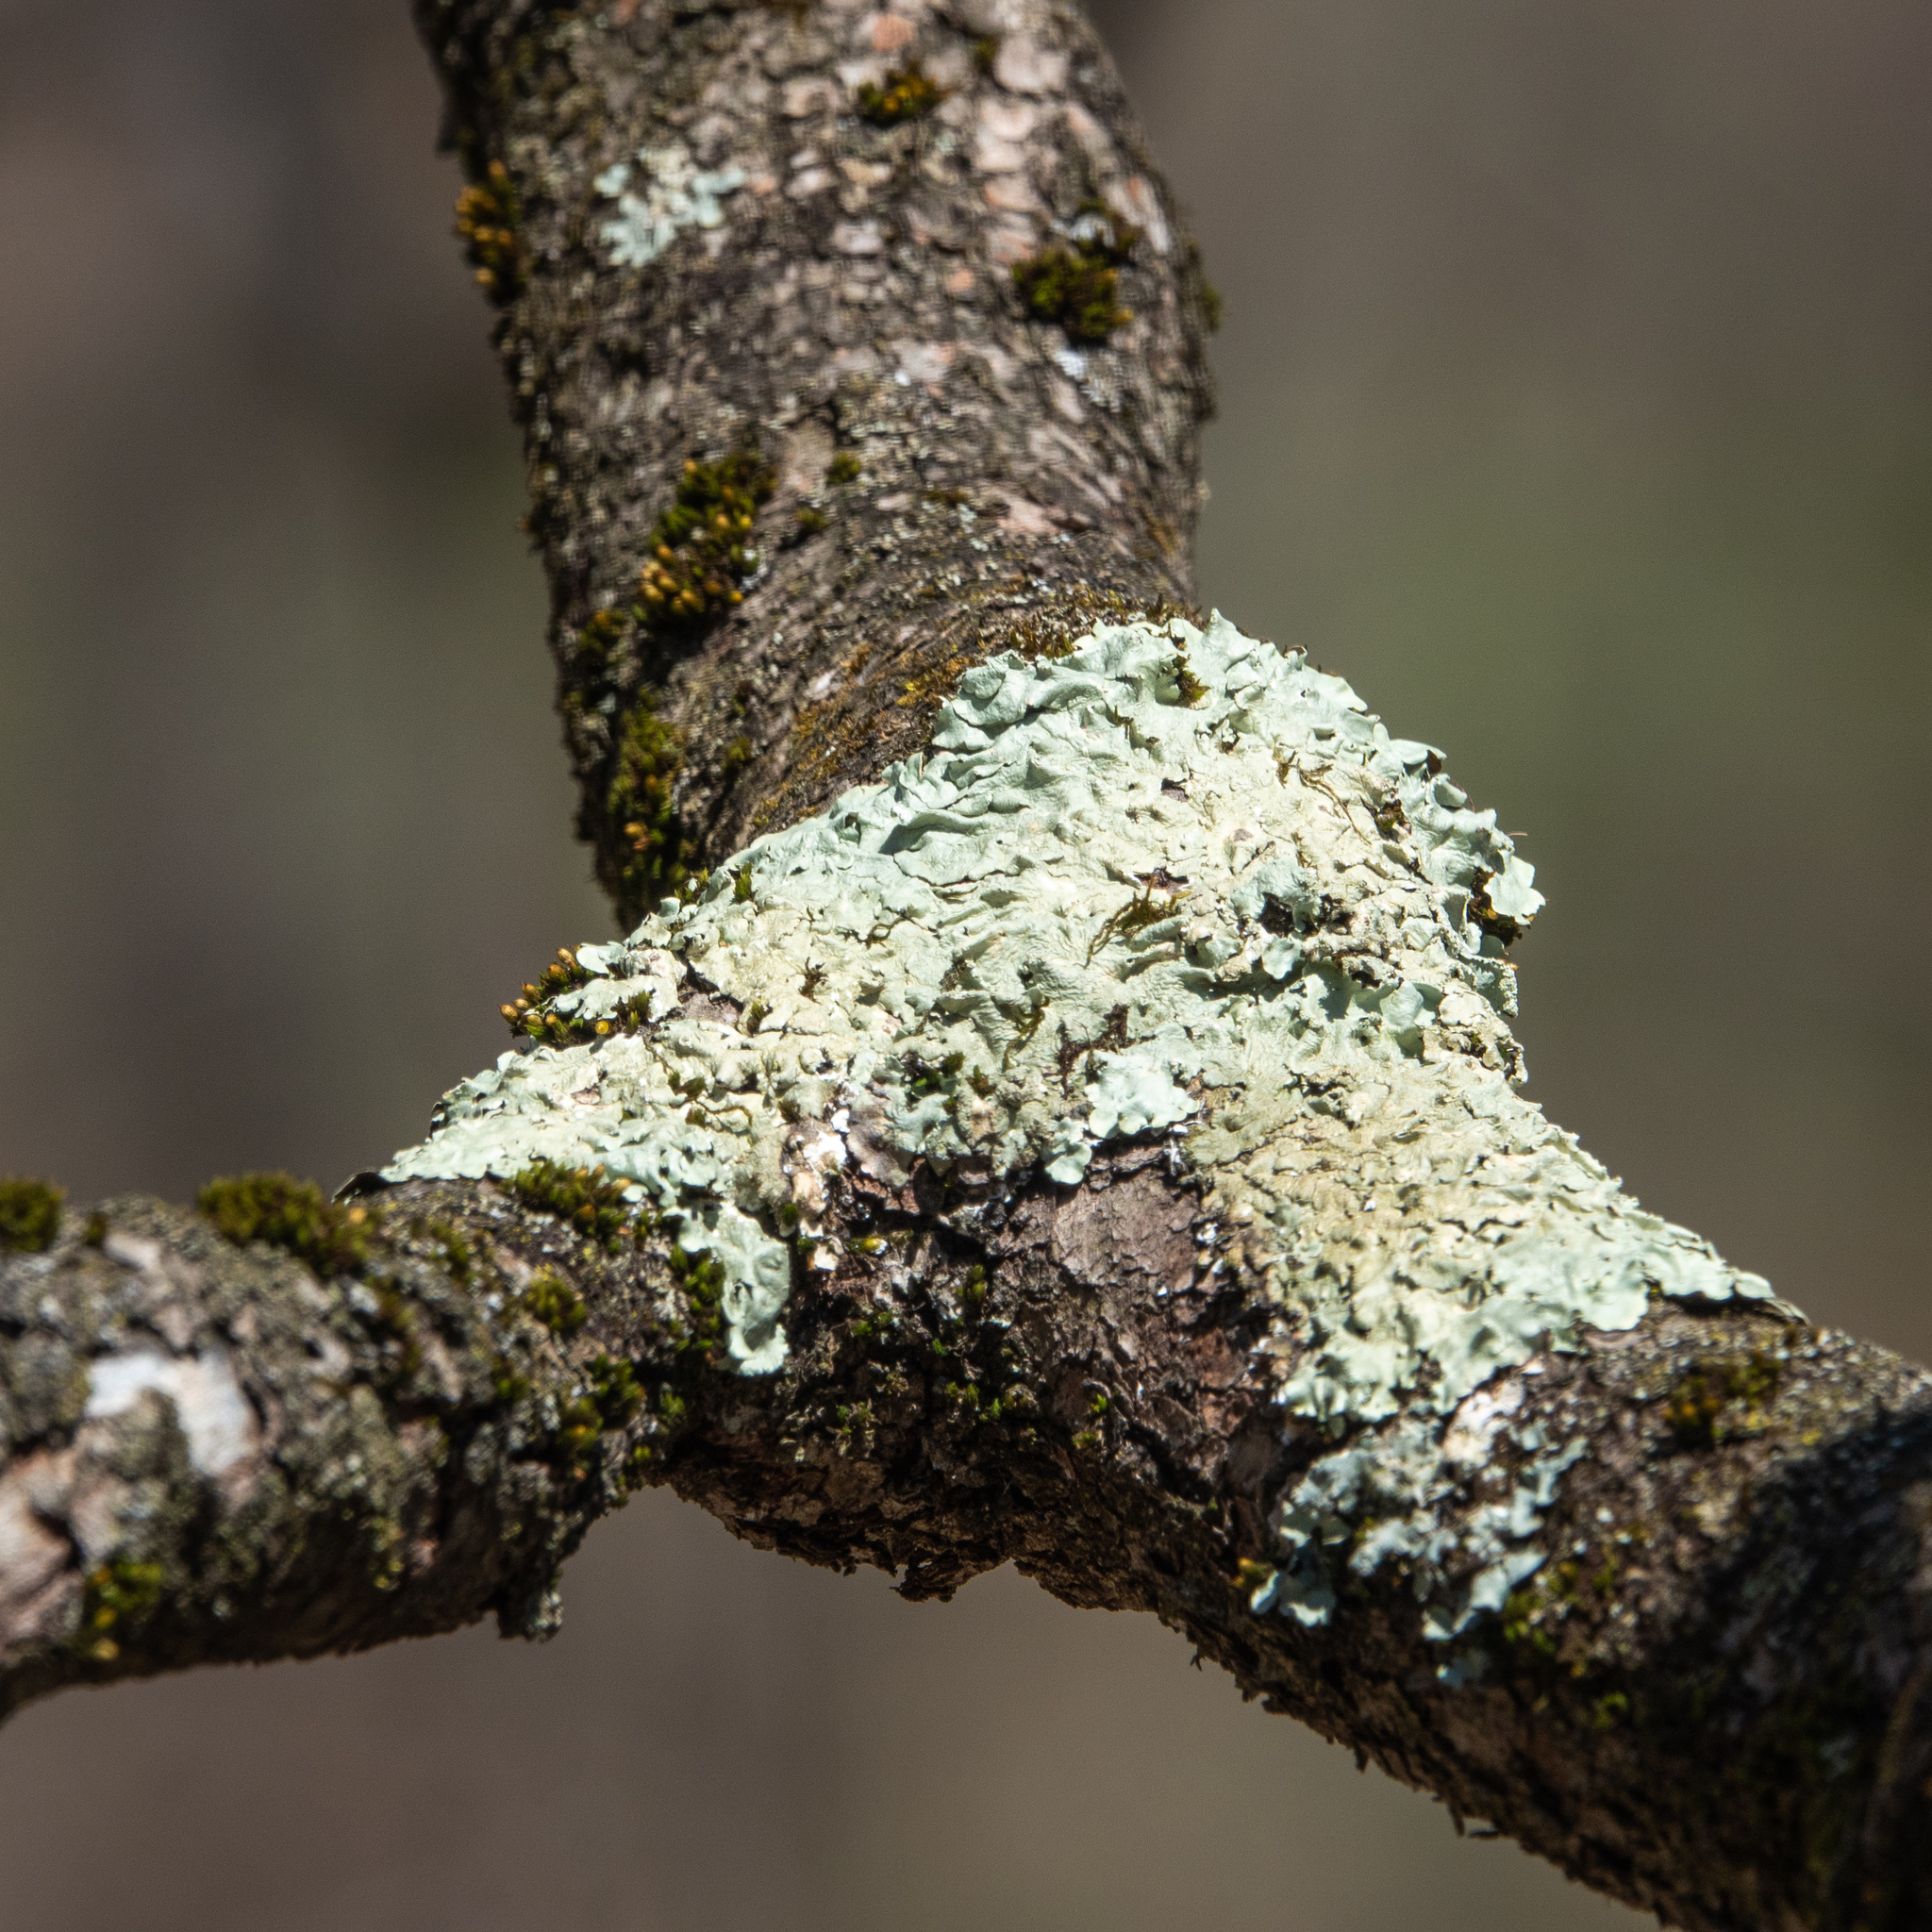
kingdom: Fungi
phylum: Ascomycota
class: Lecanoromycetes
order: Lecanorales
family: Parmeliaceae
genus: Flavoparmelia
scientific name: Flavoparmelia caperata
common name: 40-mile per hour lichen
